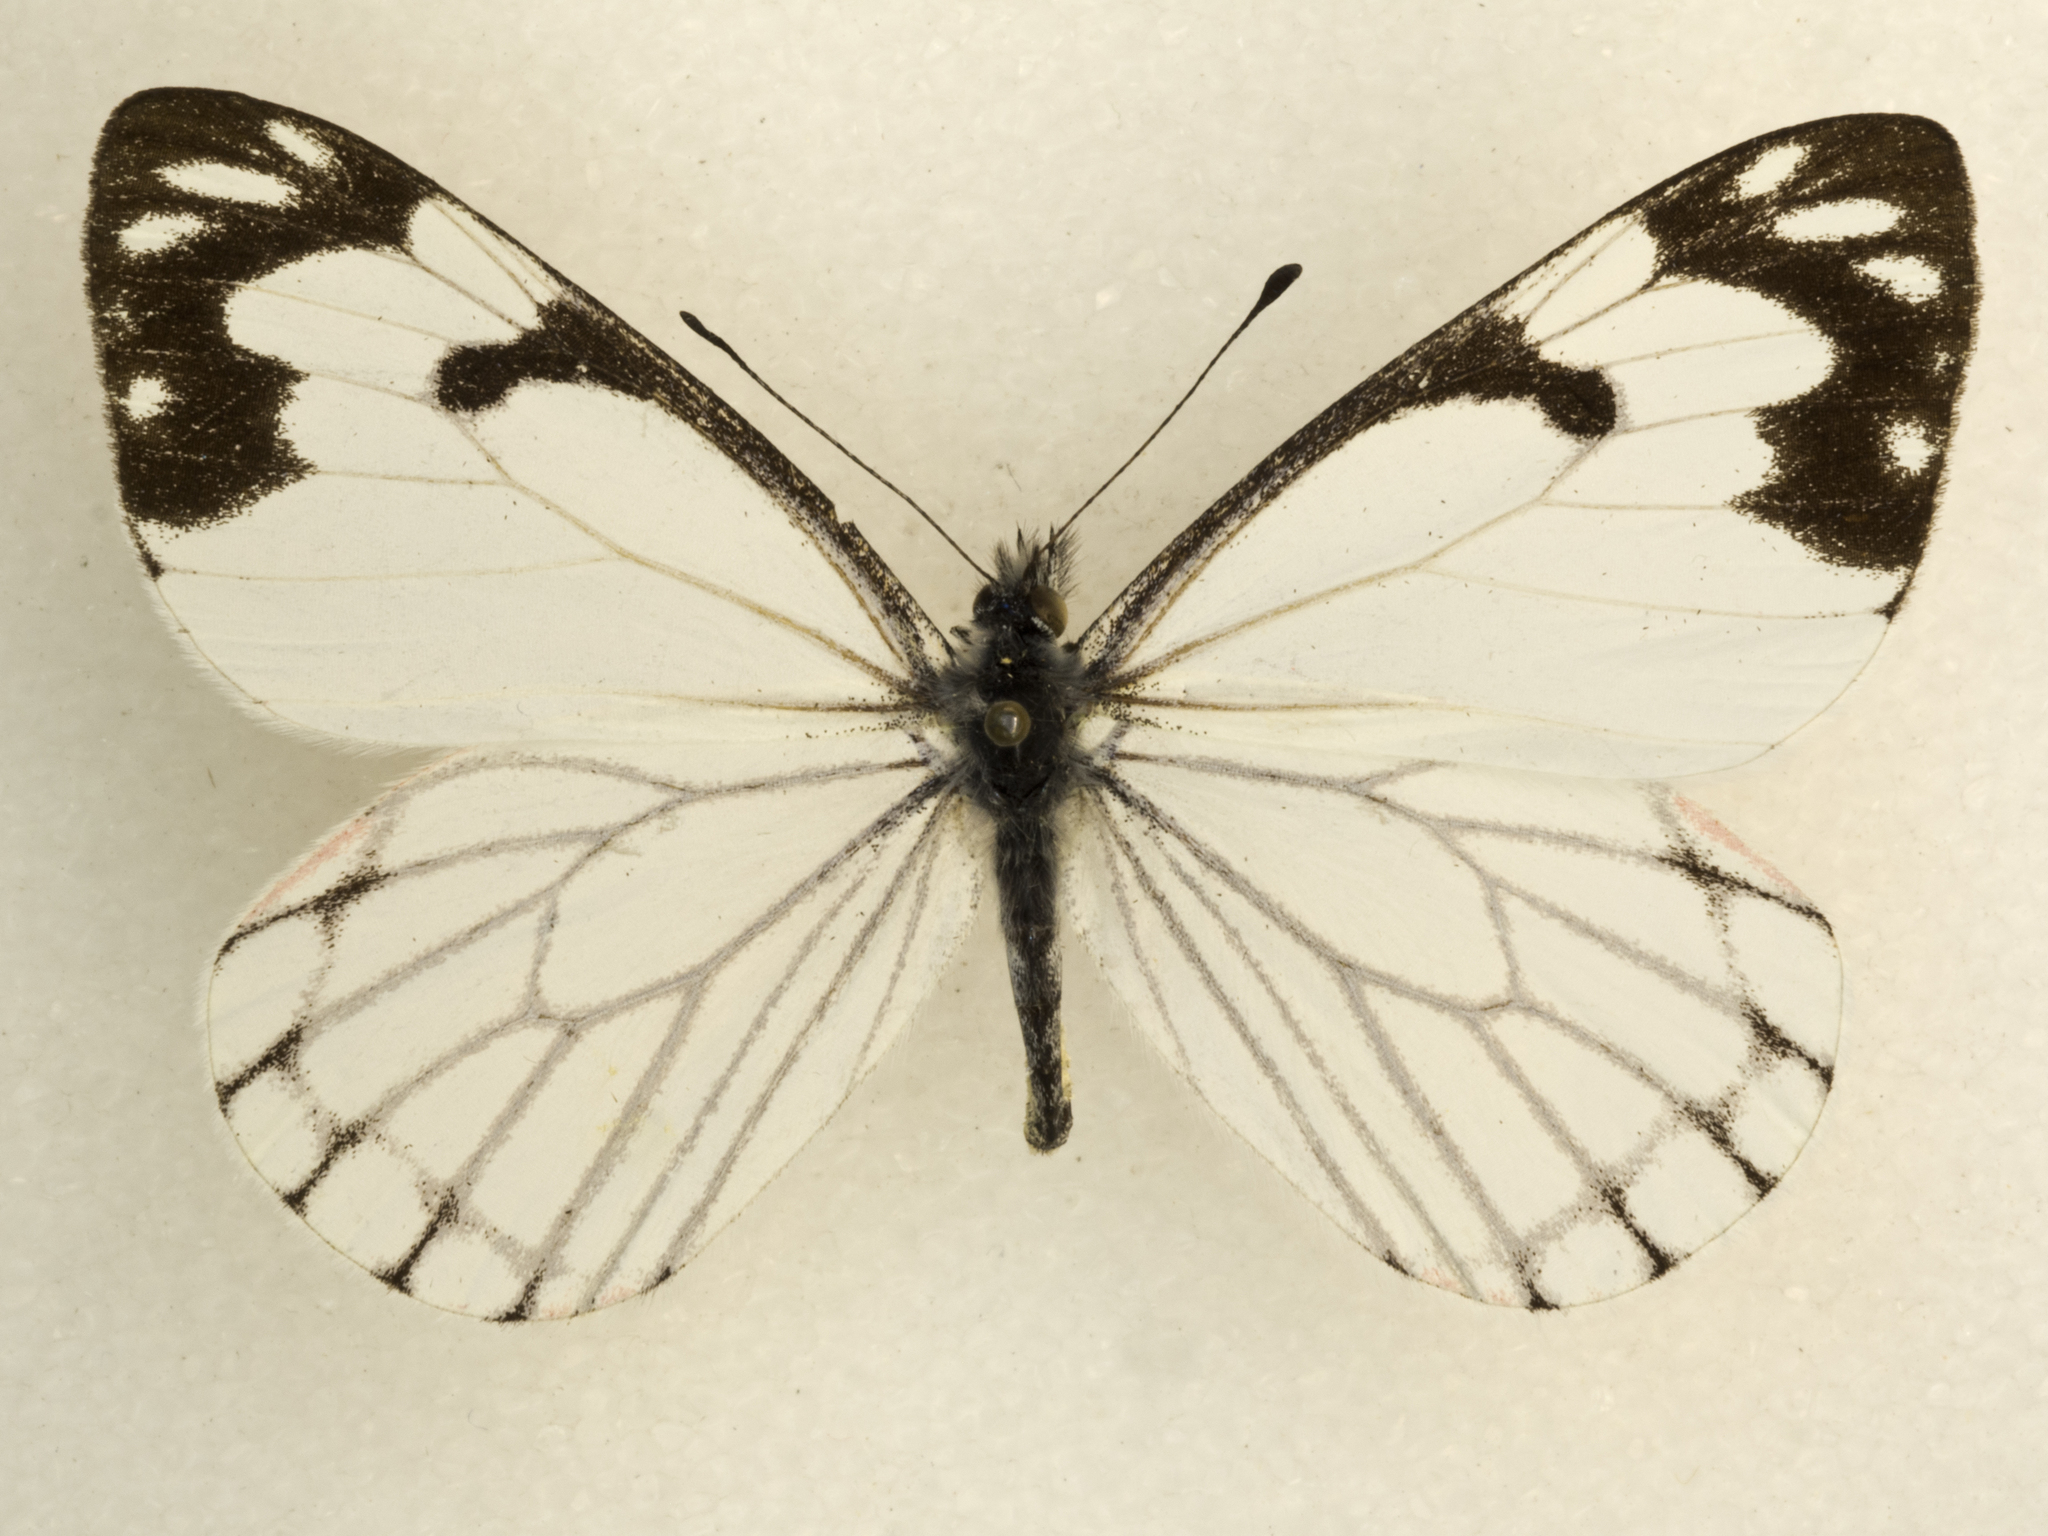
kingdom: Animalia
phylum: Arthropoda
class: Insecta
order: Lepidoptera
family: Pieridae
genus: Neophasia
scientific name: Neophasia menapia
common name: Pine white
